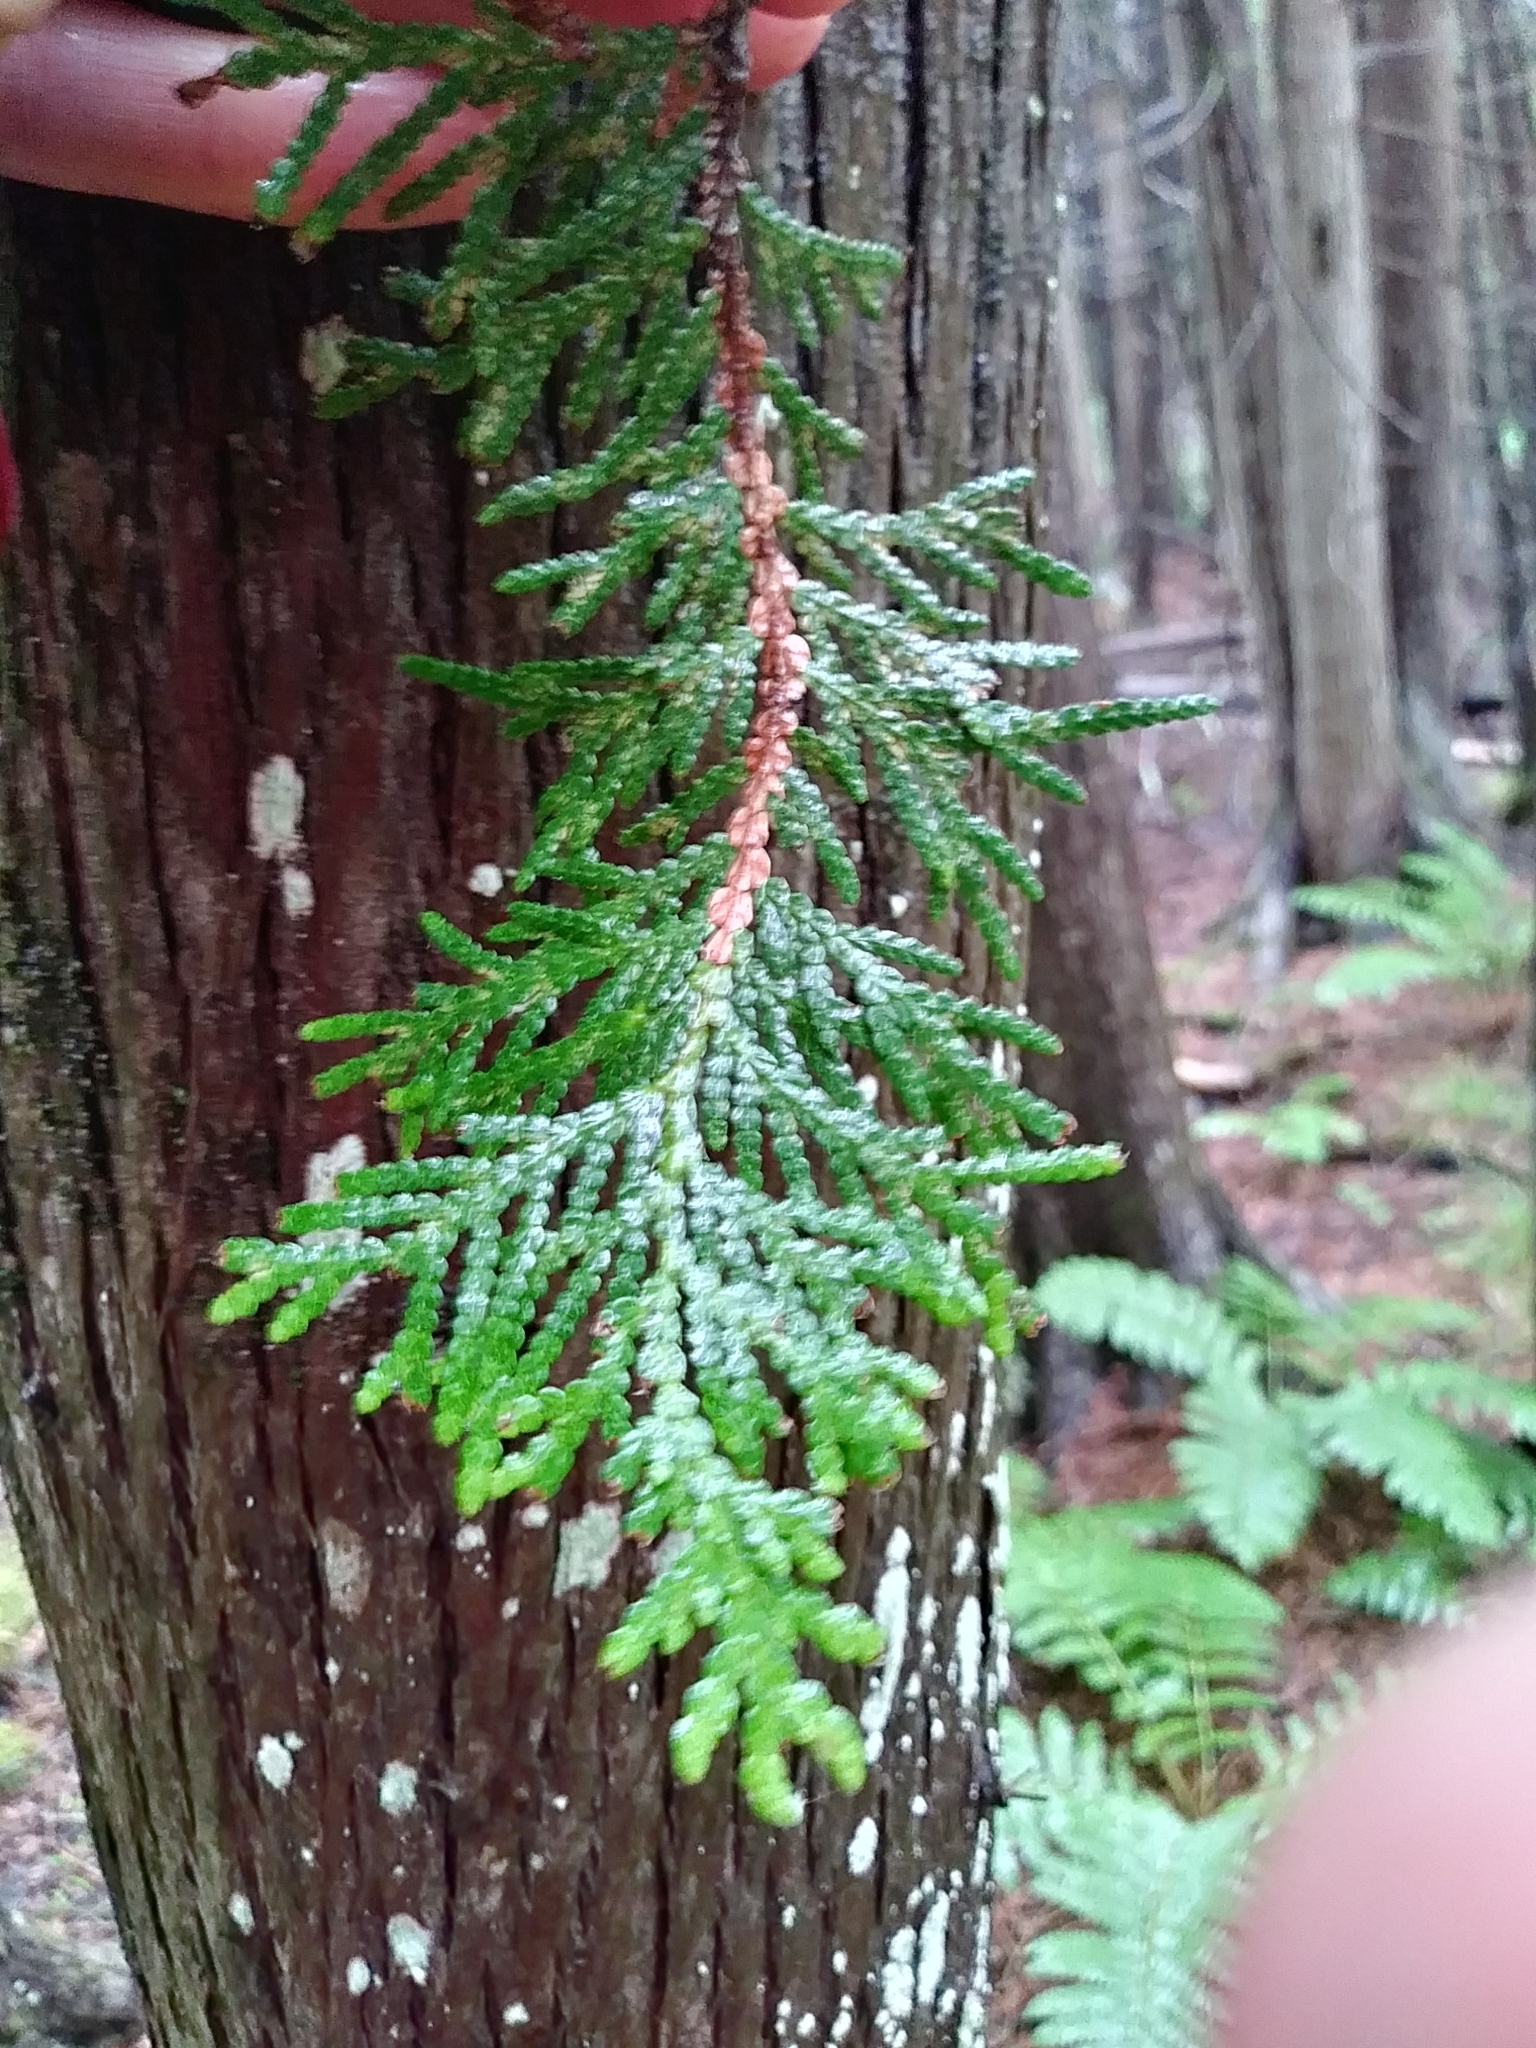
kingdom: Plantae
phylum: Tracheophyta
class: Pinopsida
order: Pinales
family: Cupressaceae
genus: Thuja
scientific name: Thuja occidentalis
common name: Northern white-cedar
